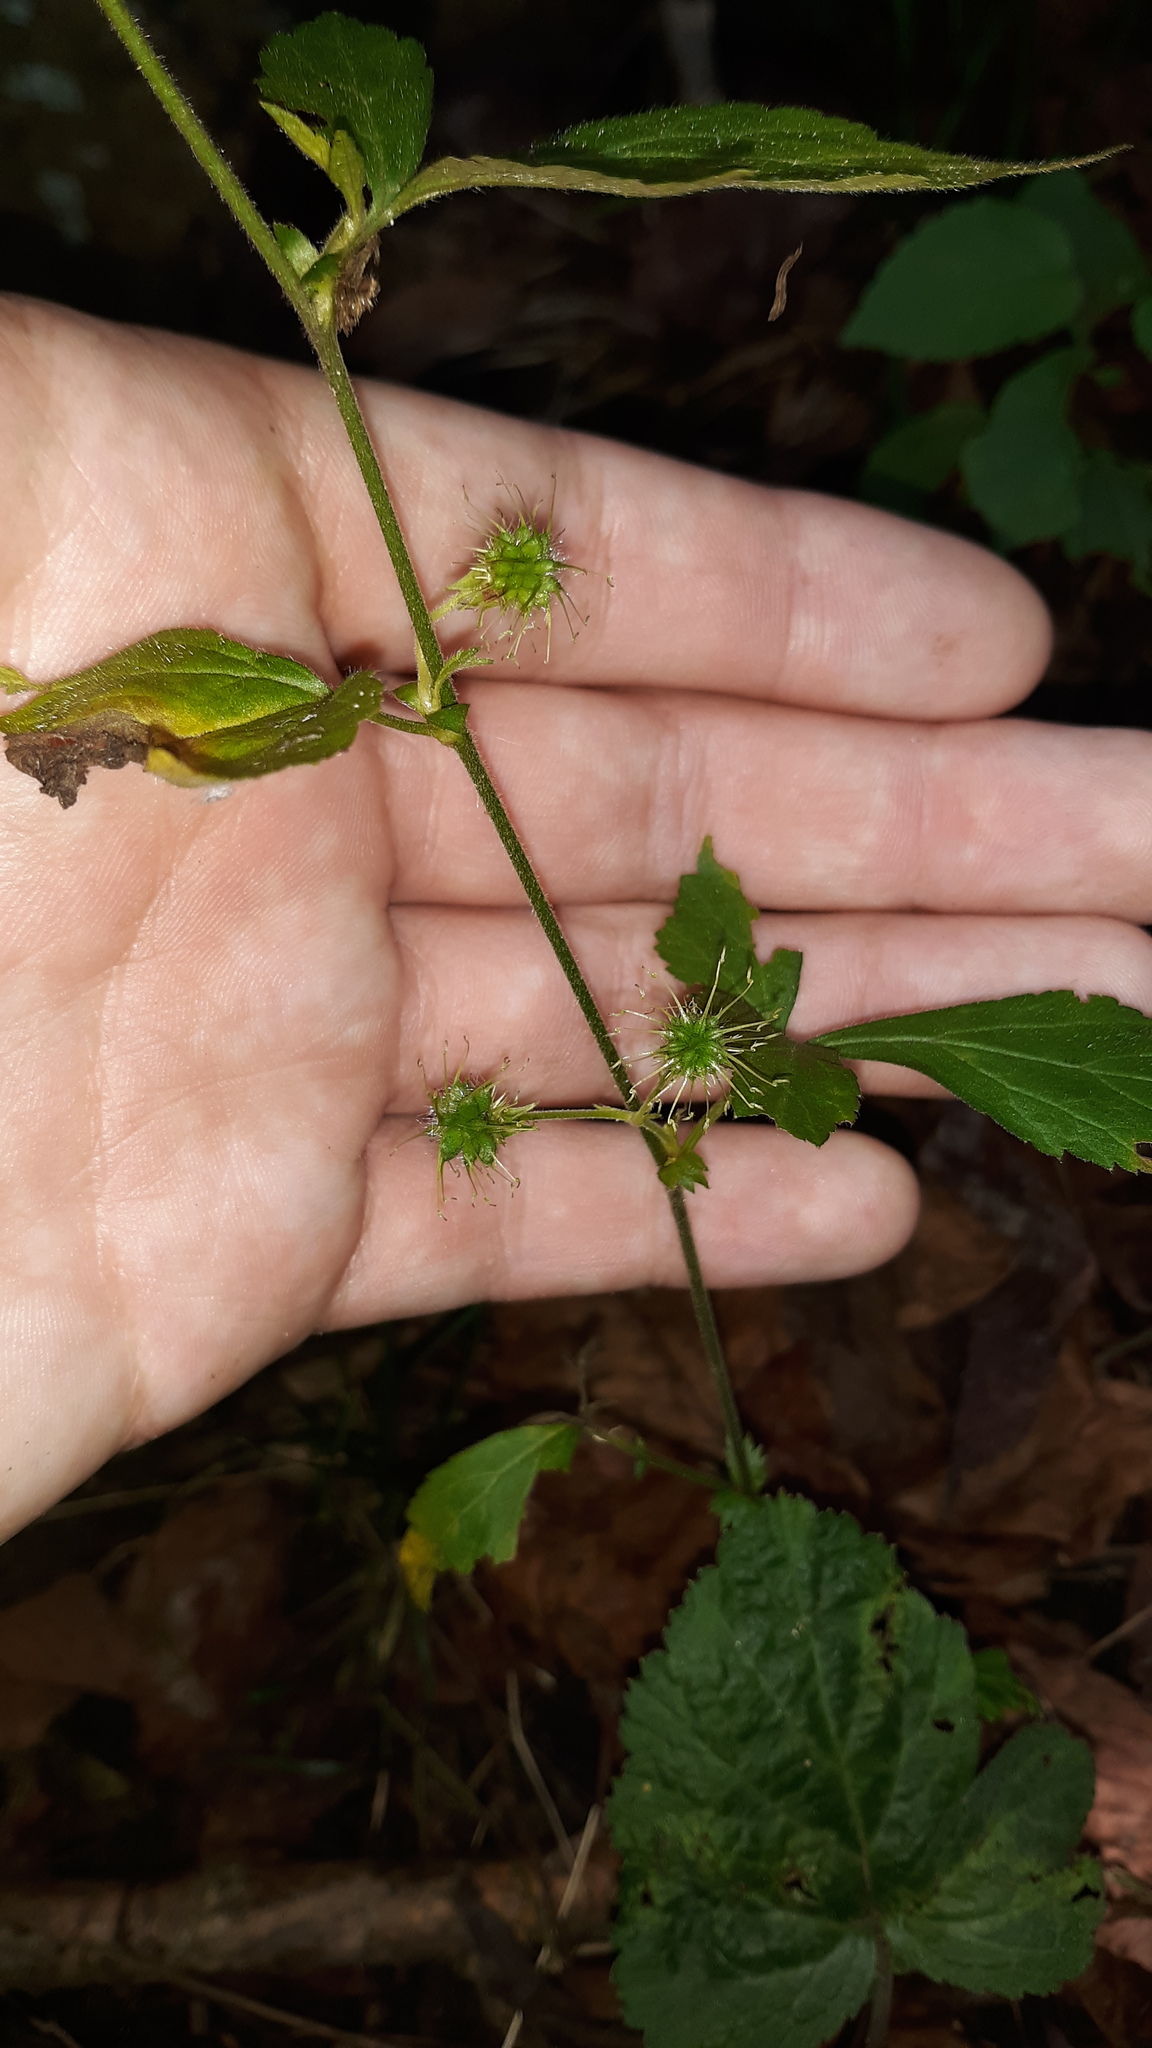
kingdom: Plantae
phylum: Tracheophyta
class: Magnoliopsida
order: Rosales
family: Rosaceae
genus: Geum
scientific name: Geum canadense
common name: White avens
